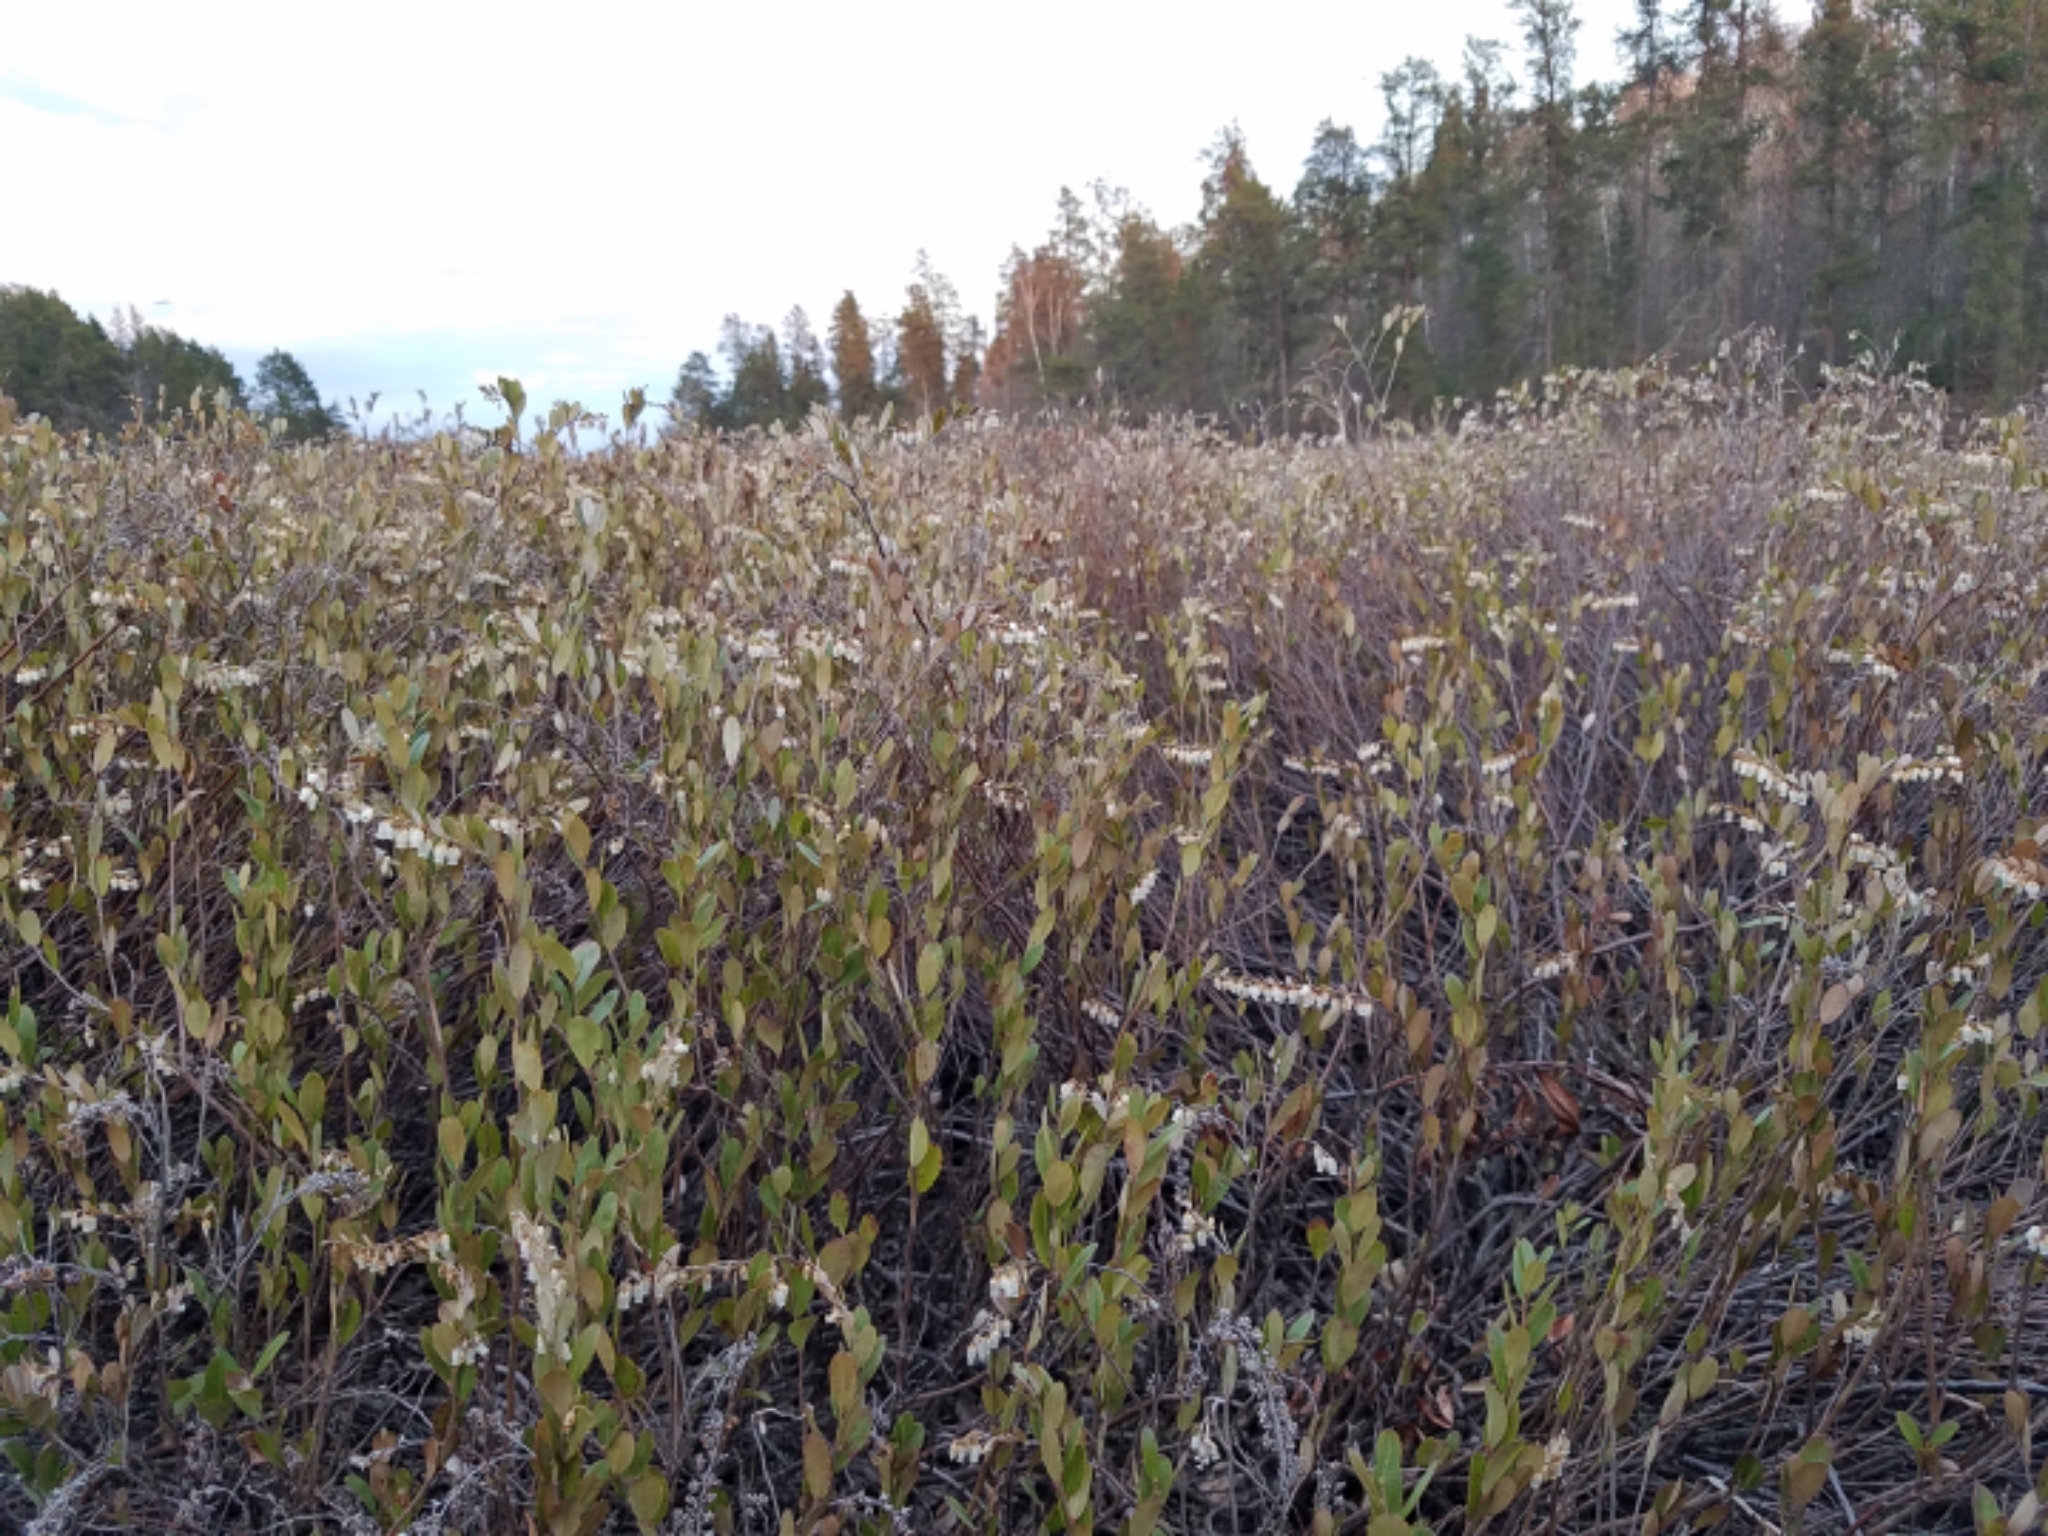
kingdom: Plantae
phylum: Tracheophyta
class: Magnoliopsida
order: Ericales
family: Ericaceae
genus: Chamaedaphne
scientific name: Chamaedaphne calyculata
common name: Leatherleaf
